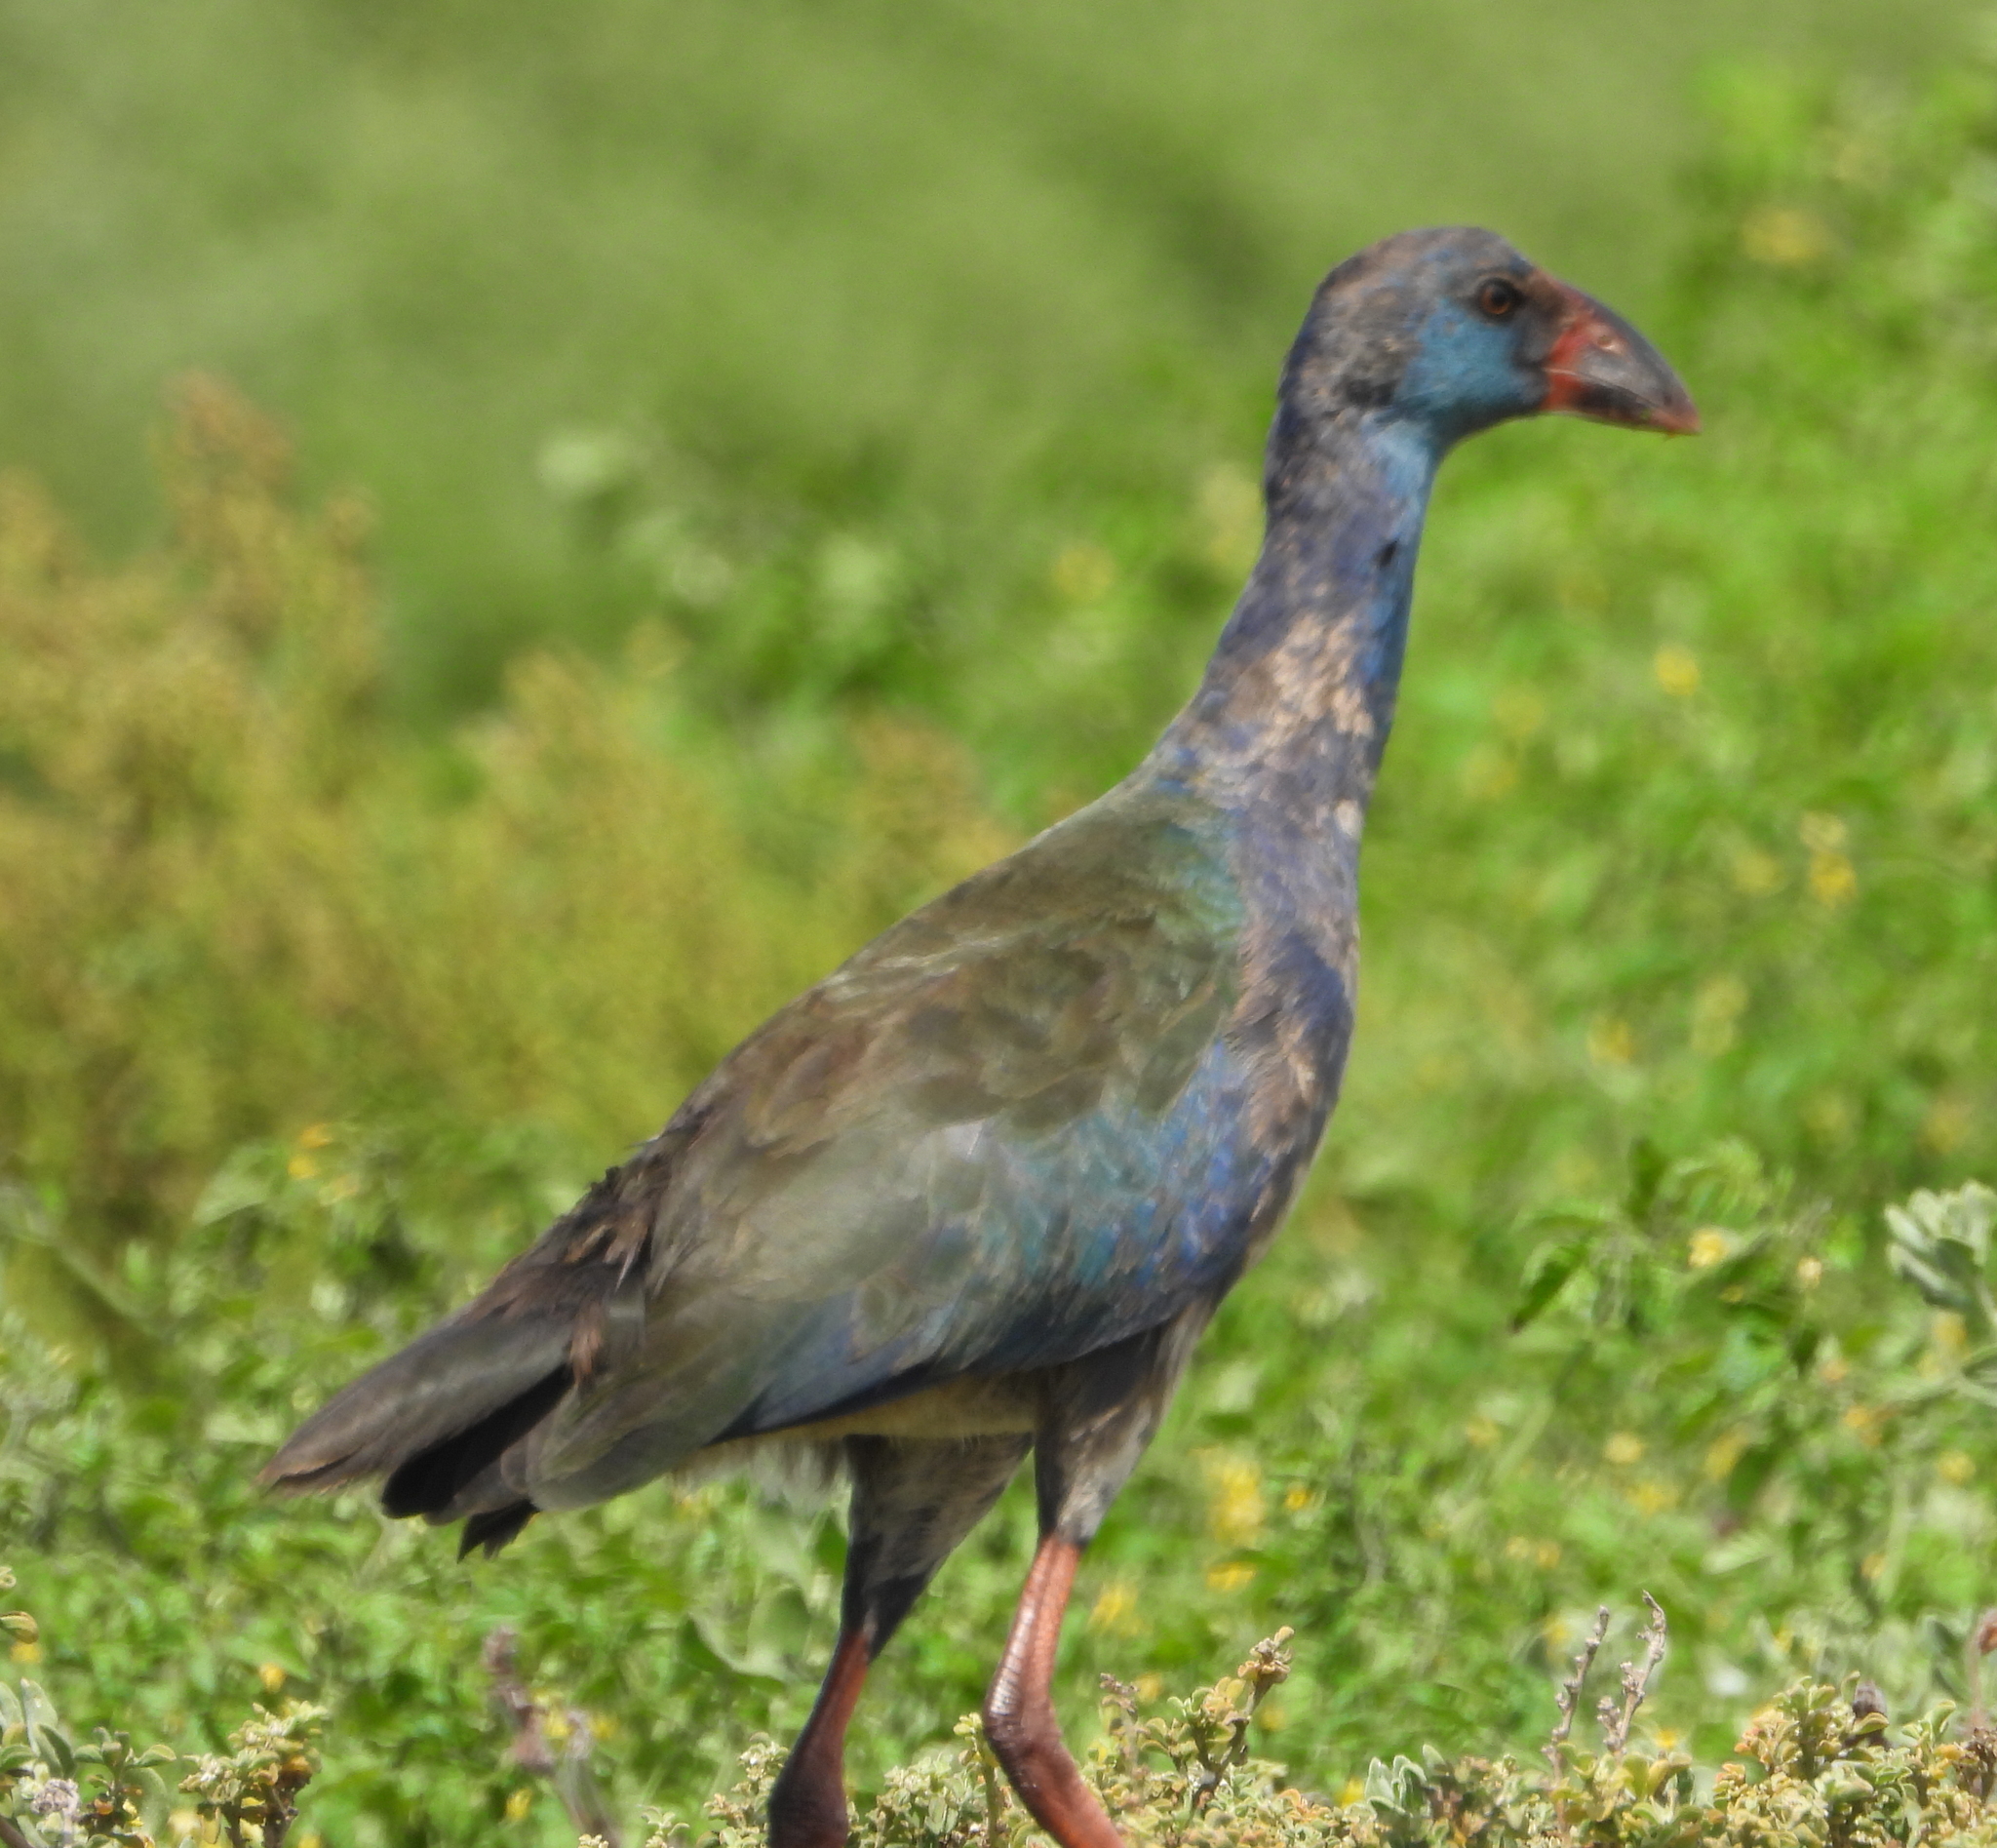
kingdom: Animalia
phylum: Chordata
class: Aves
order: Gruiformes
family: Rallidae
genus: Porphyrio
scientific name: Porphyrio porphyrio
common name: Purple swamphen
